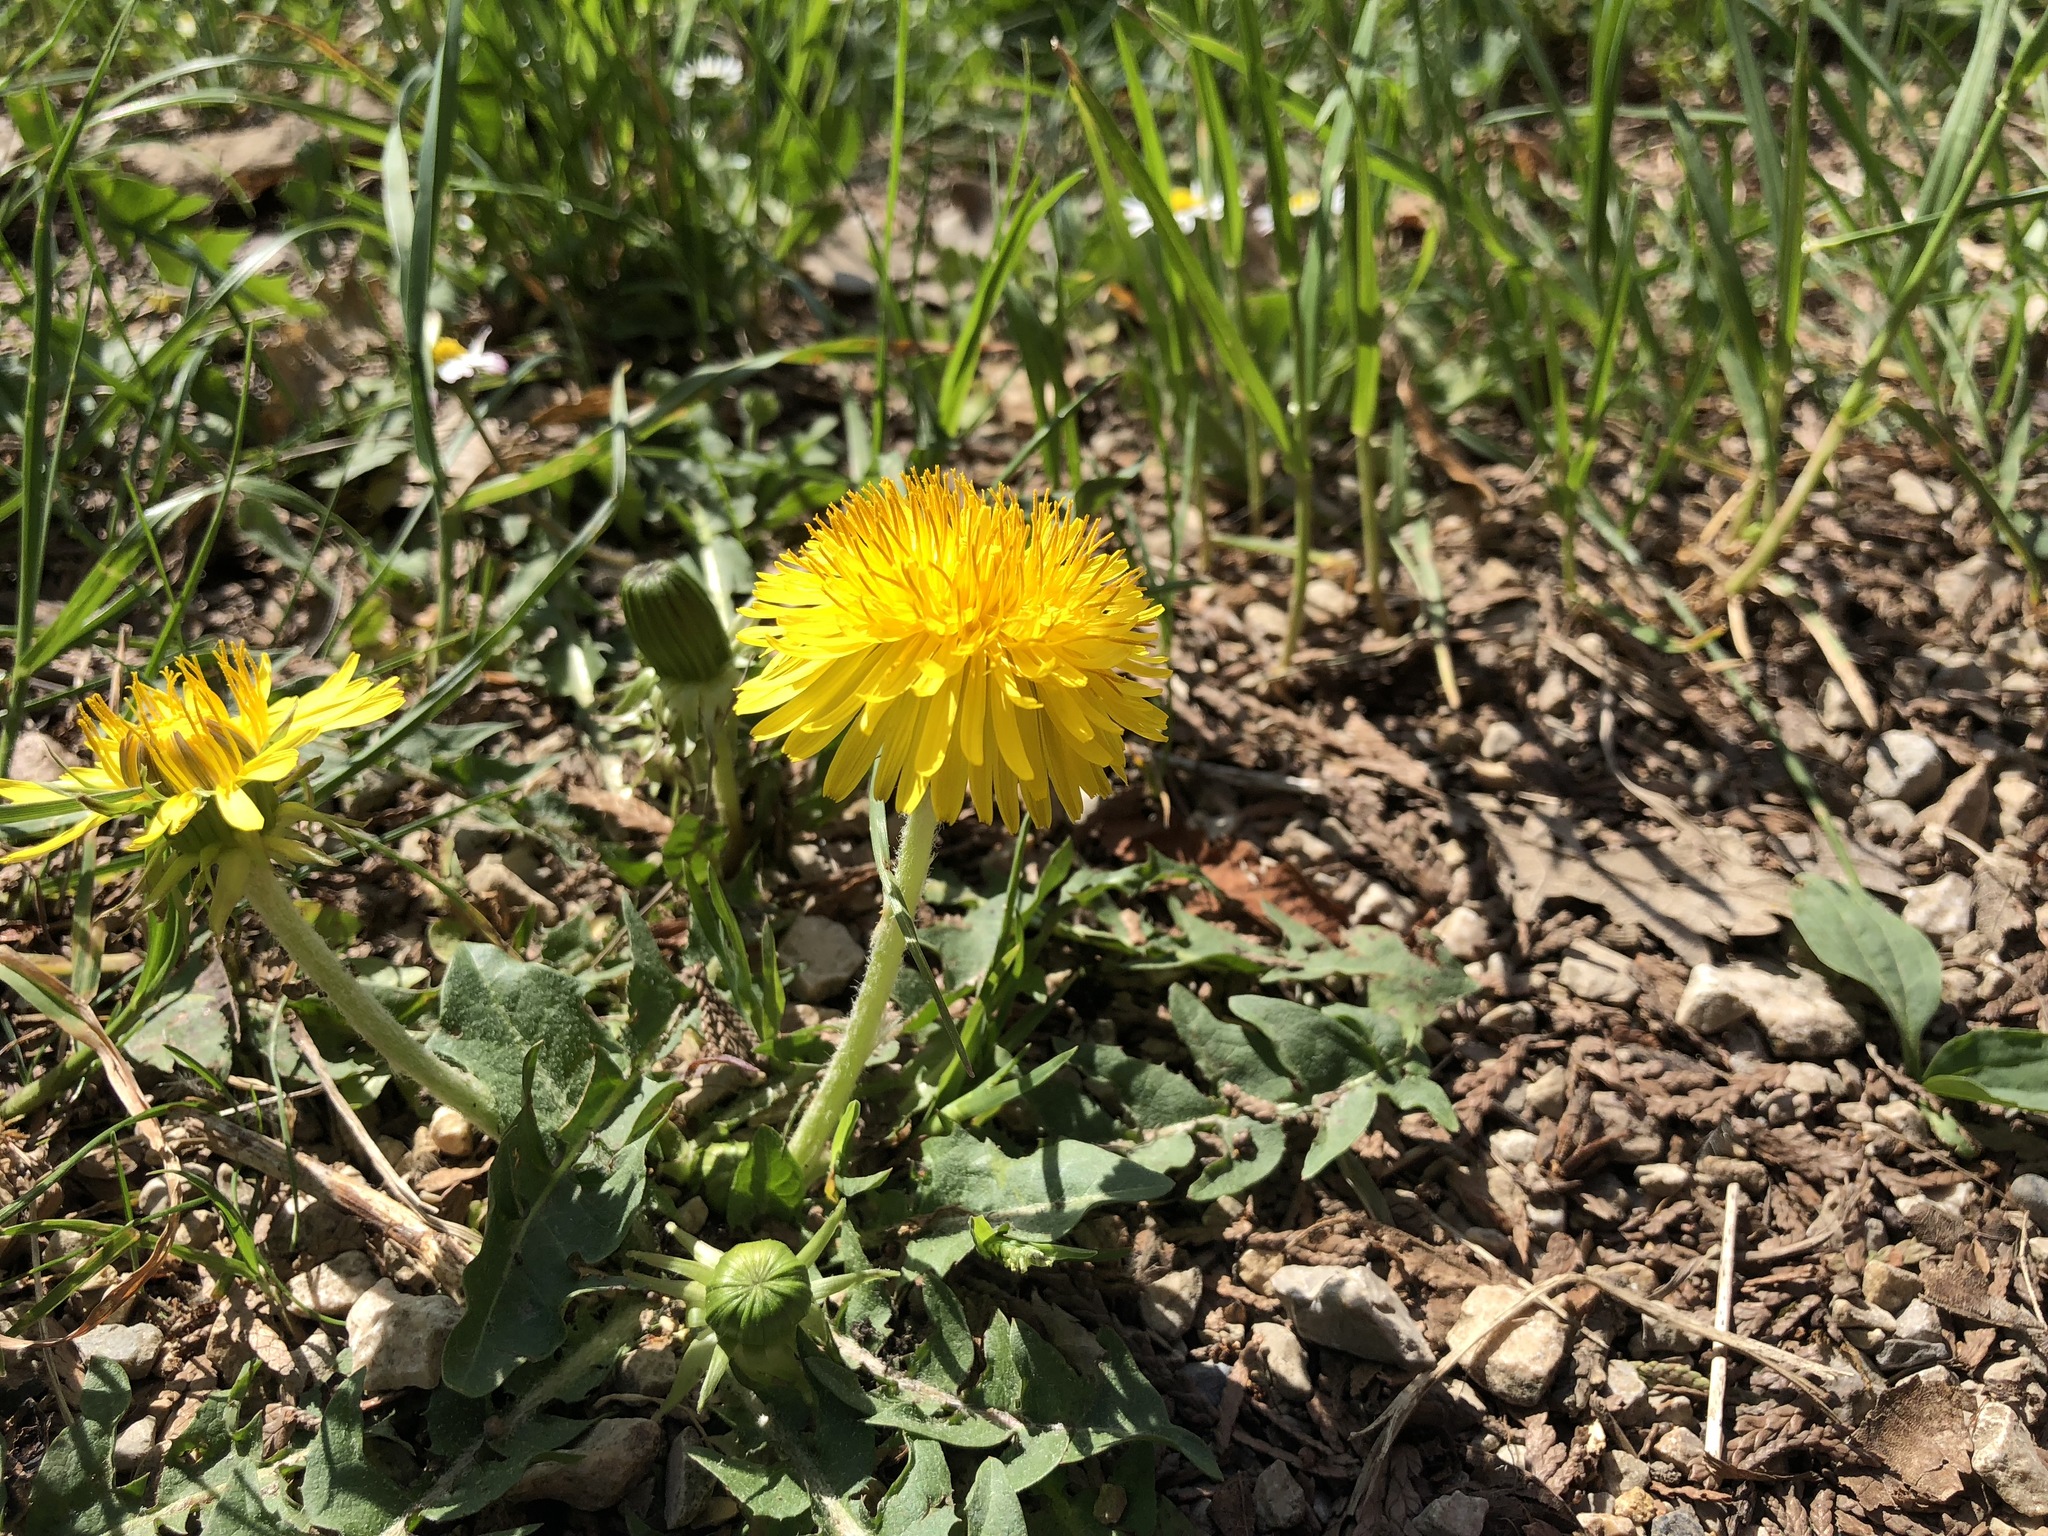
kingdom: Plantae
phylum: Tracheophyta
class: Magnoliopsida
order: Asterales
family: Asteraceae
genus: Taraxacum
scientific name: Taraxacum officinale
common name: Common dandelion
